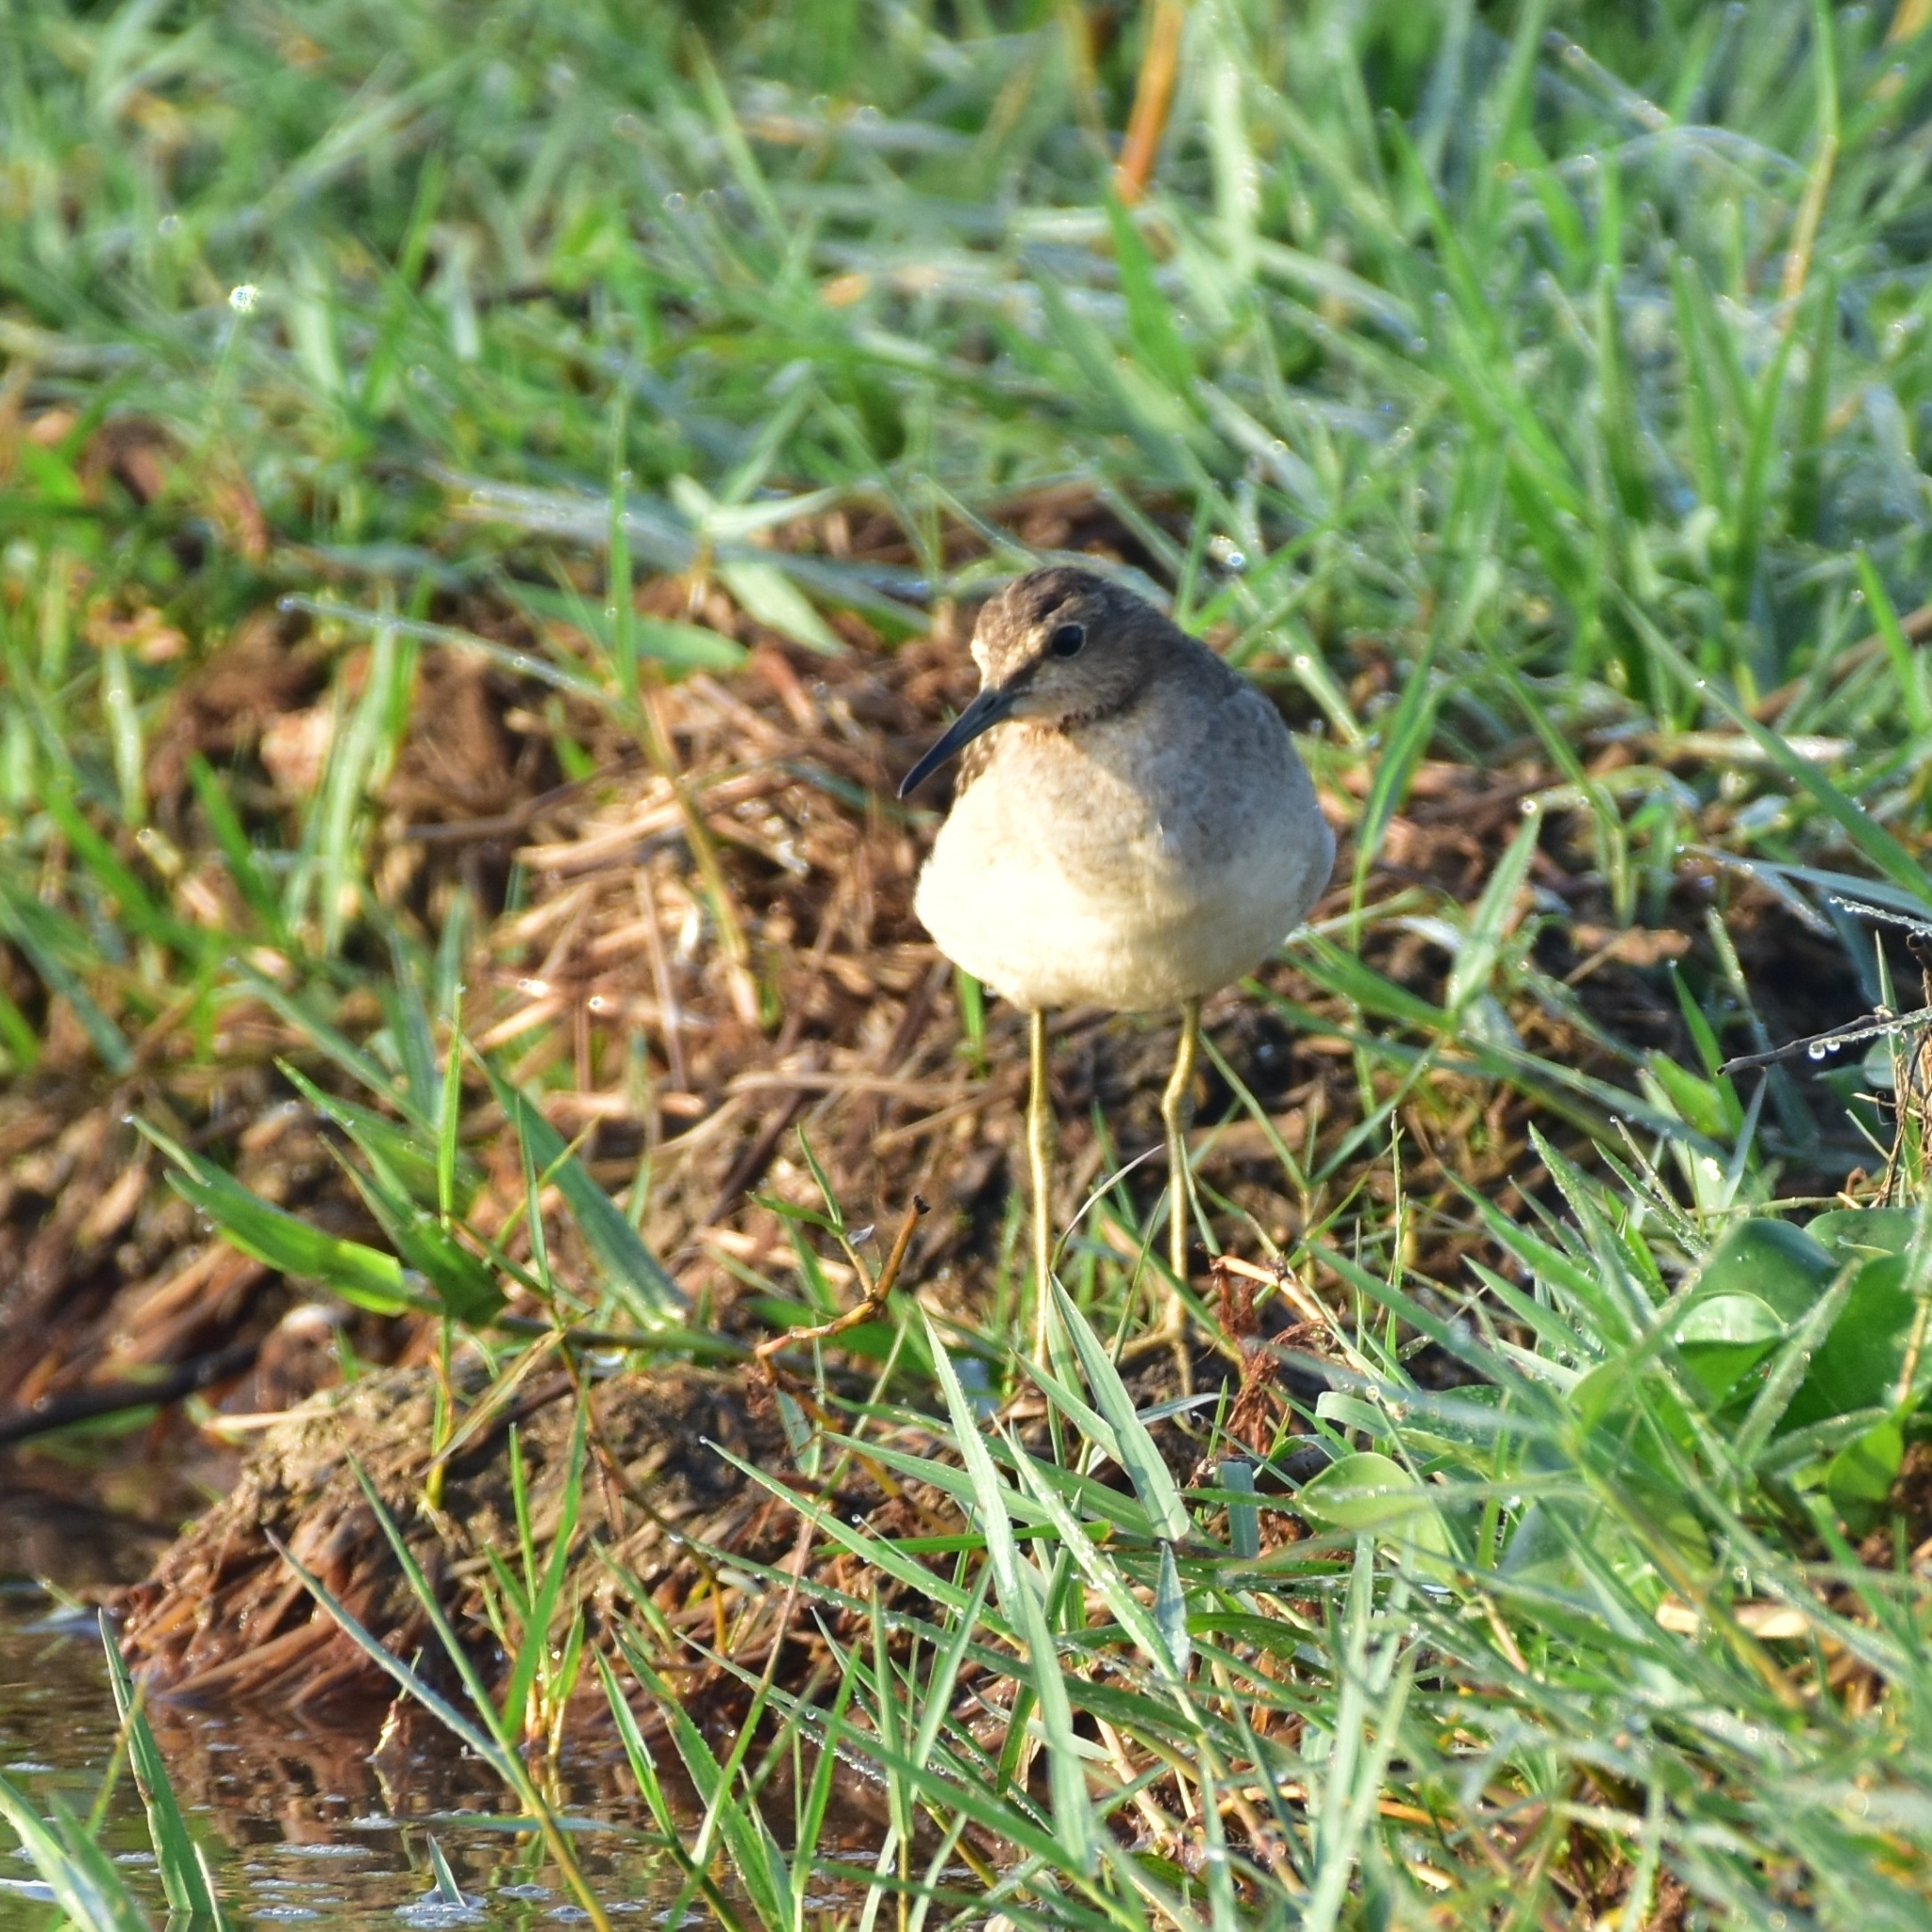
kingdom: Animalia
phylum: Chordata
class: Aves
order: Charadriiformes
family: Scolopacidae
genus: Tringa
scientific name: Tringa glareola
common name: Wood sandpiper
